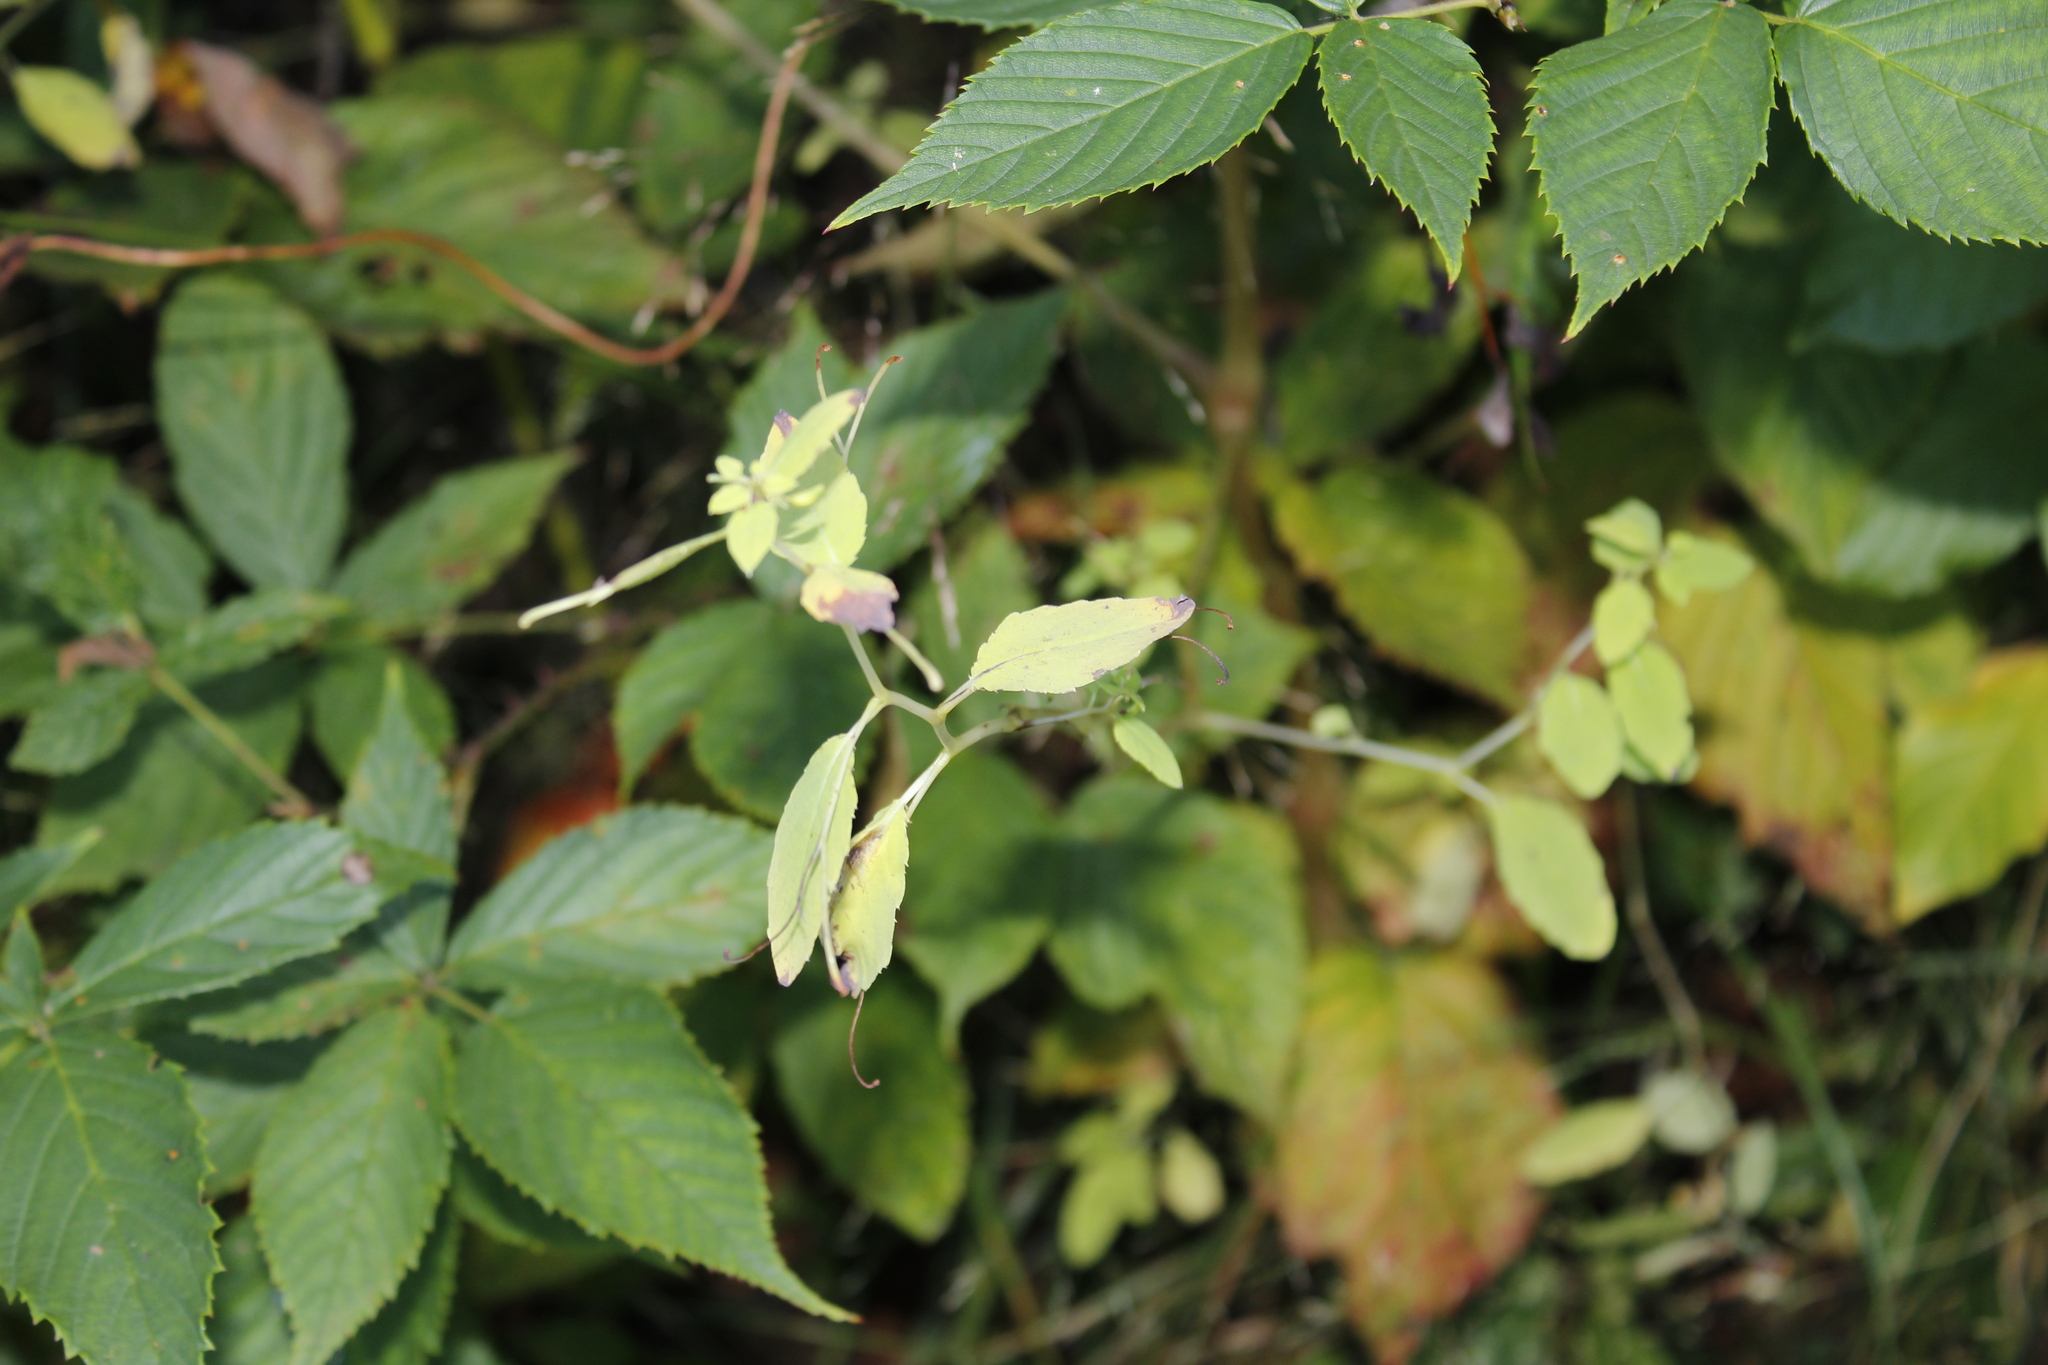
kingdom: Plantae
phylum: Tracheophyta
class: Magnoliopsida
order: Ericales
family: Balsaminaceae
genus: Impatiens
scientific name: Impatiens
